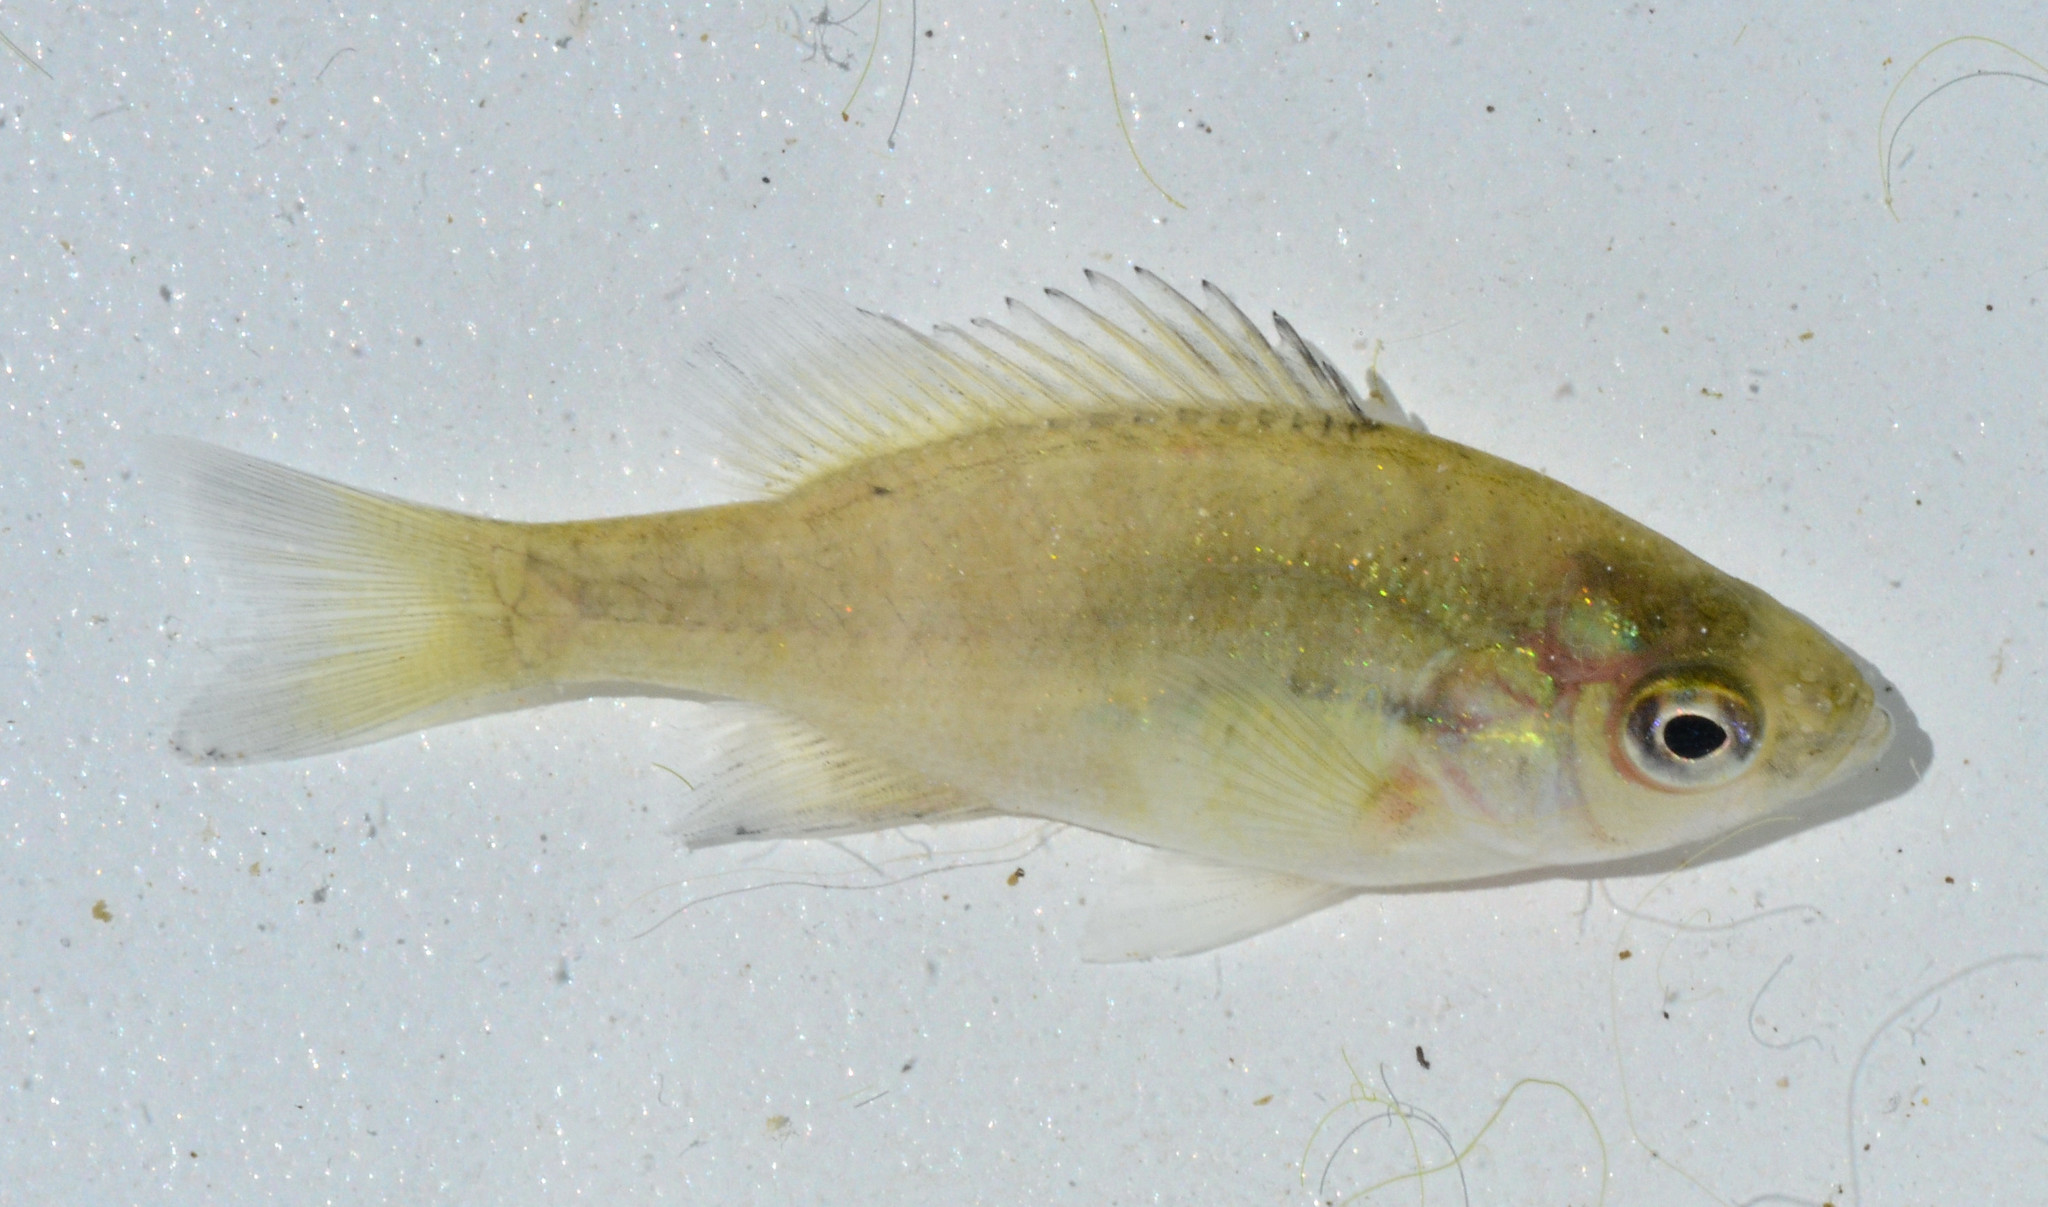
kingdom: Animalia
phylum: Chordata
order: Perciformes
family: Centrarchidae
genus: Lepomis
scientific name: Lepomis macrochirus
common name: Bluegill
